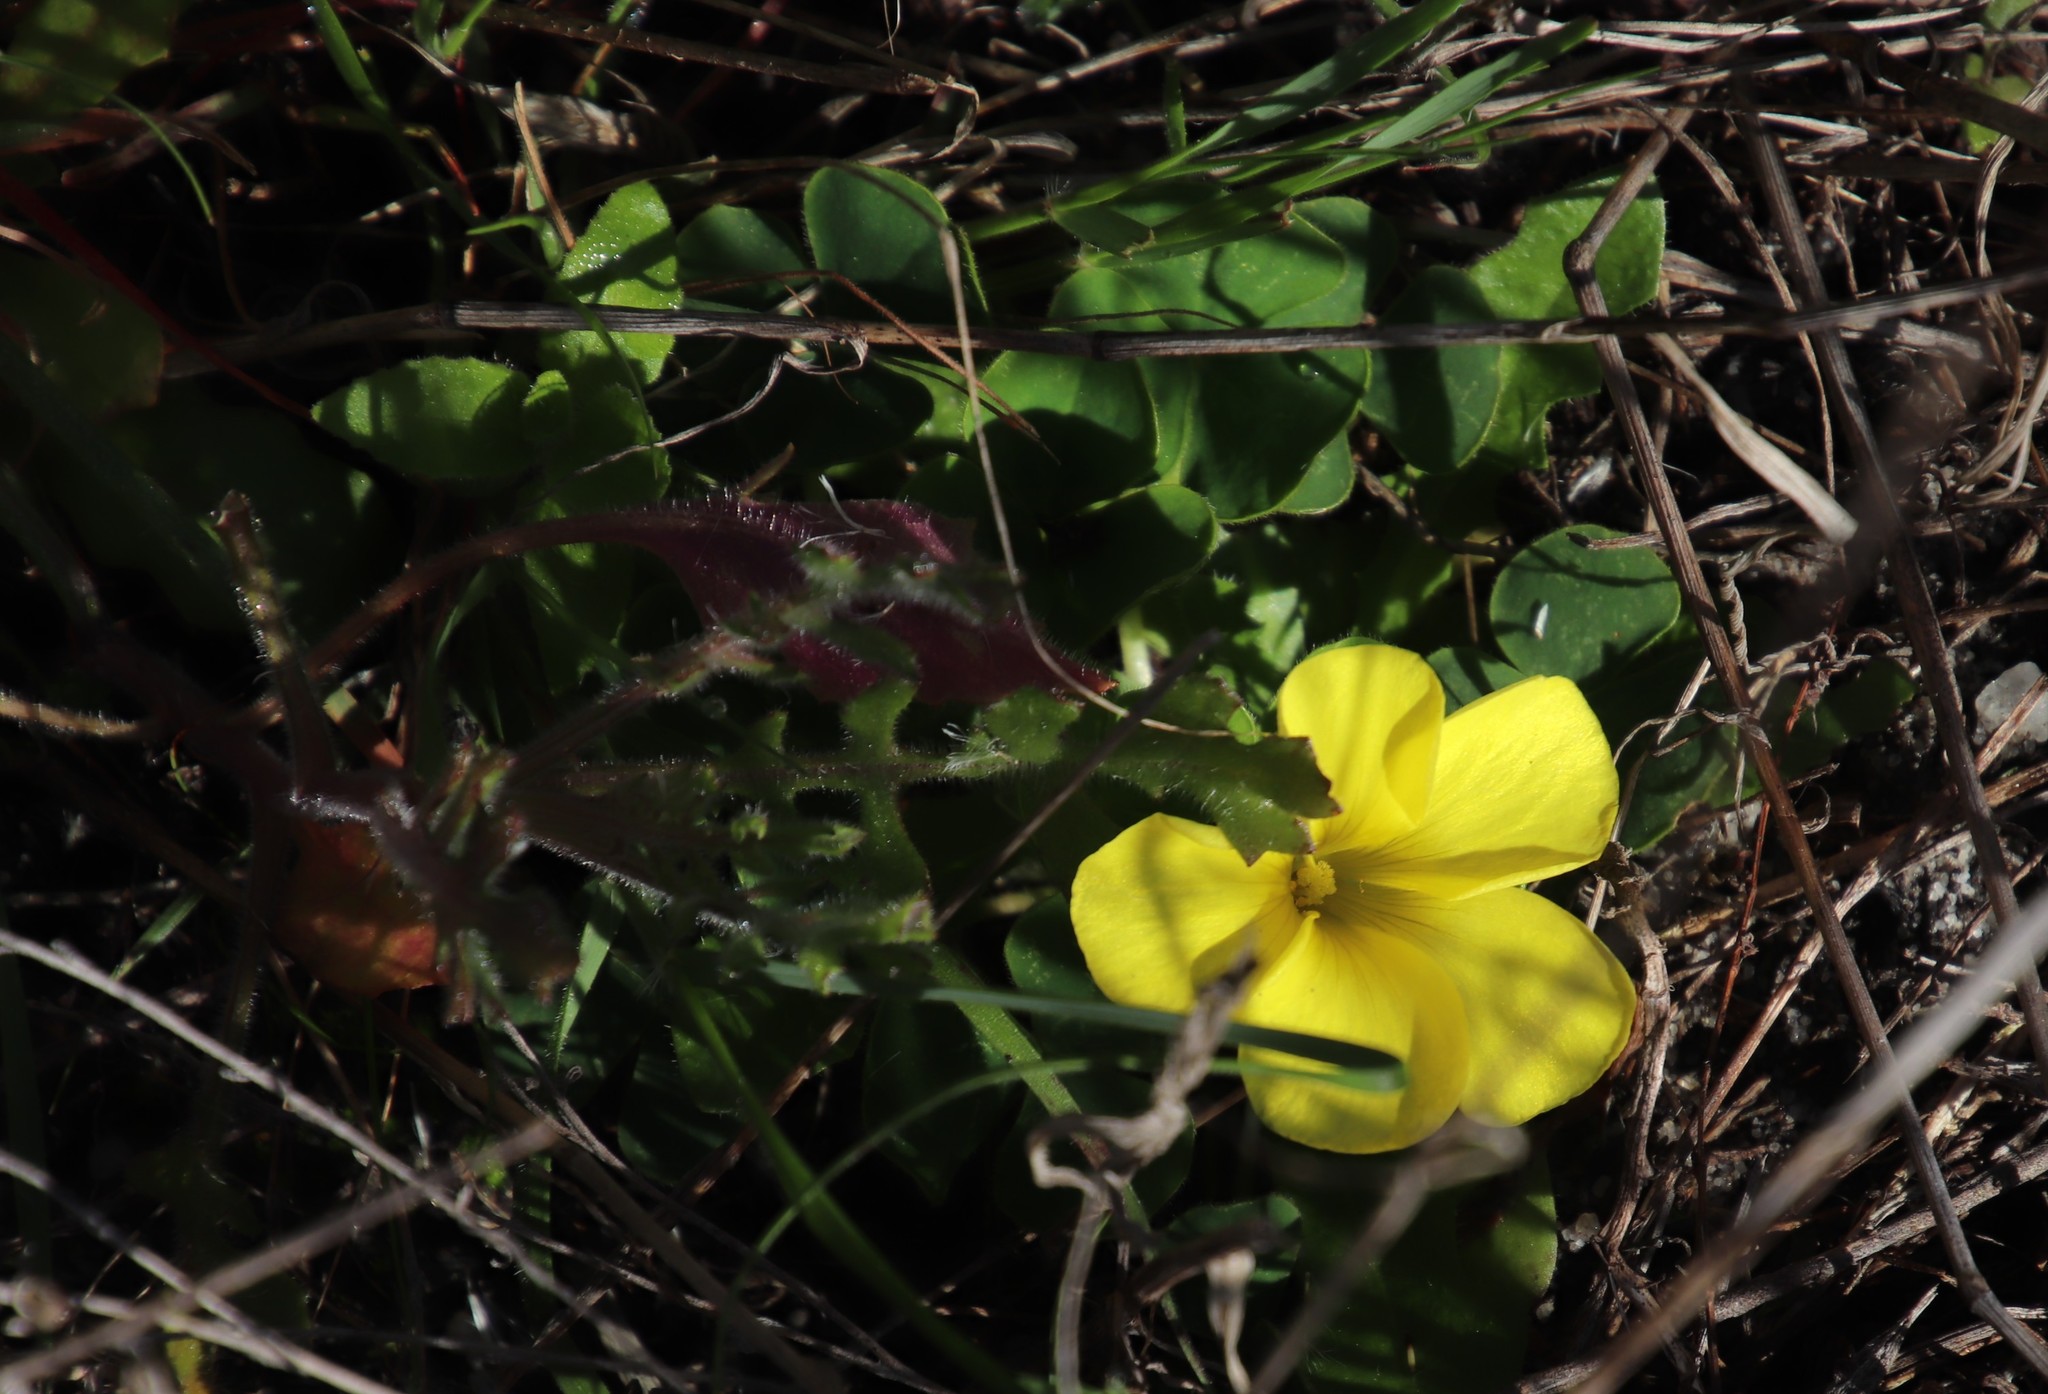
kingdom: Plantae
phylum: Tracheophyta
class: Magnoliopsida
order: Oxalidales
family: Oxalidaceae
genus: Oxalis
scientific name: Oxalis luteola
